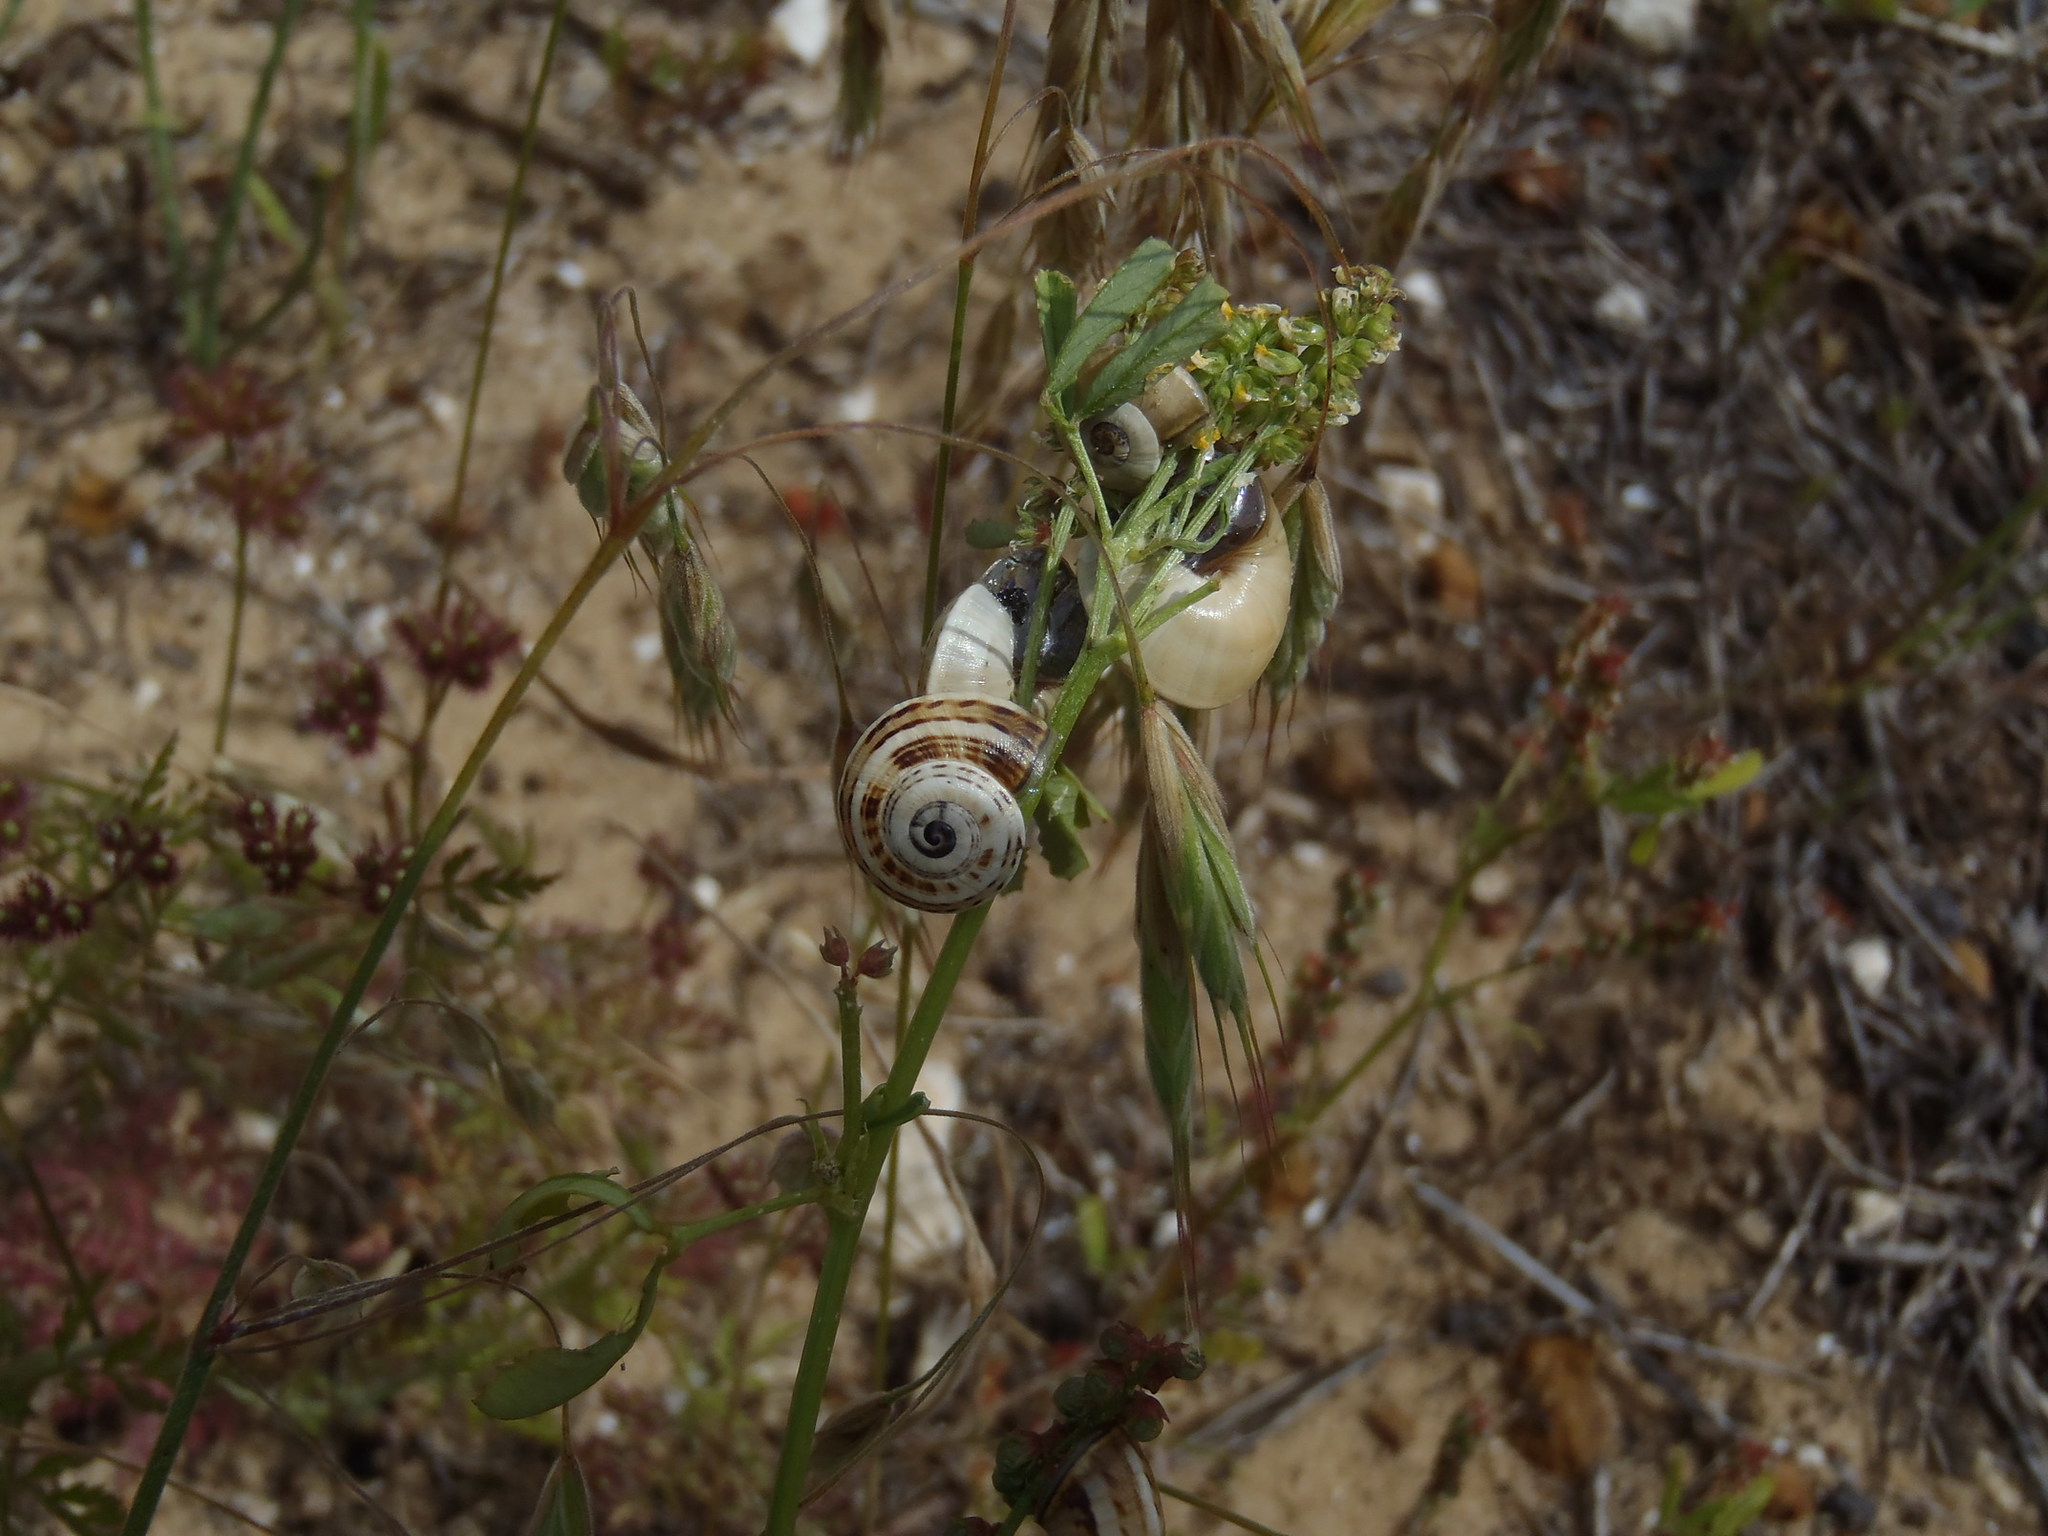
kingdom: Animalia
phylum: Mollusca
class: Gastropoda
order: Stylommatophora
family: Helicidae
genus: Theba
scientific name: Theba pisana
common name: White snail
